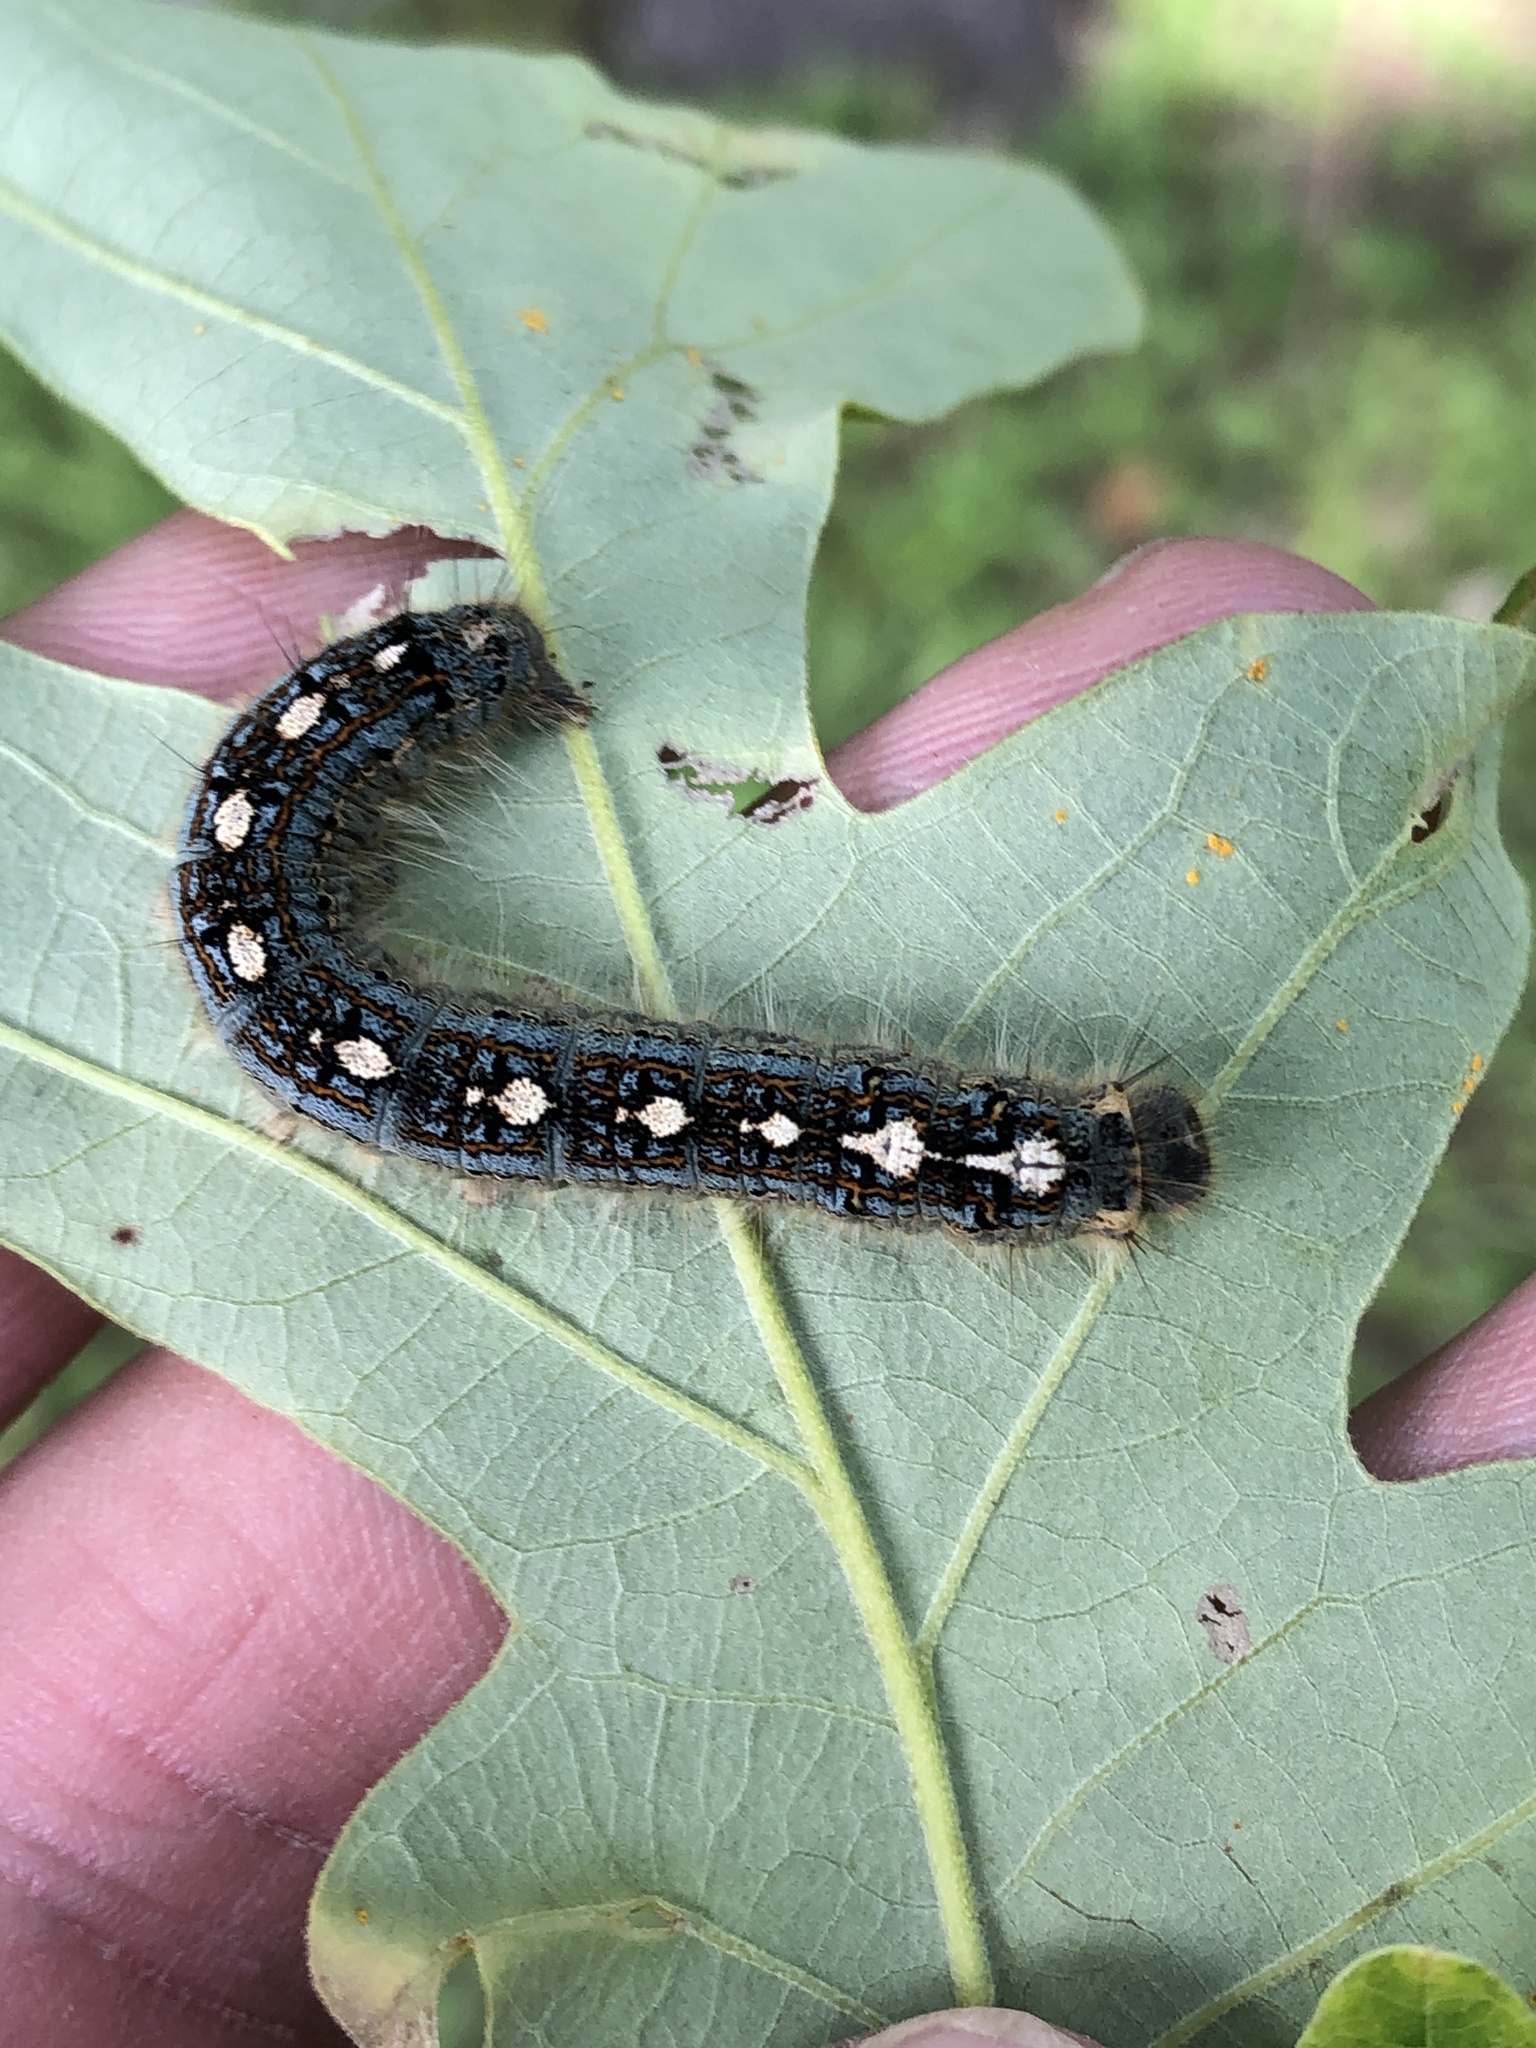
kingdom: Animalia
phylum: Arthropoda
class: Insecta
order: Lepidoptera
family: Lasiocampidae
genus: Malacosoma
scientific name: Malacosoma disstria
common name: Forest tent caterpillar
